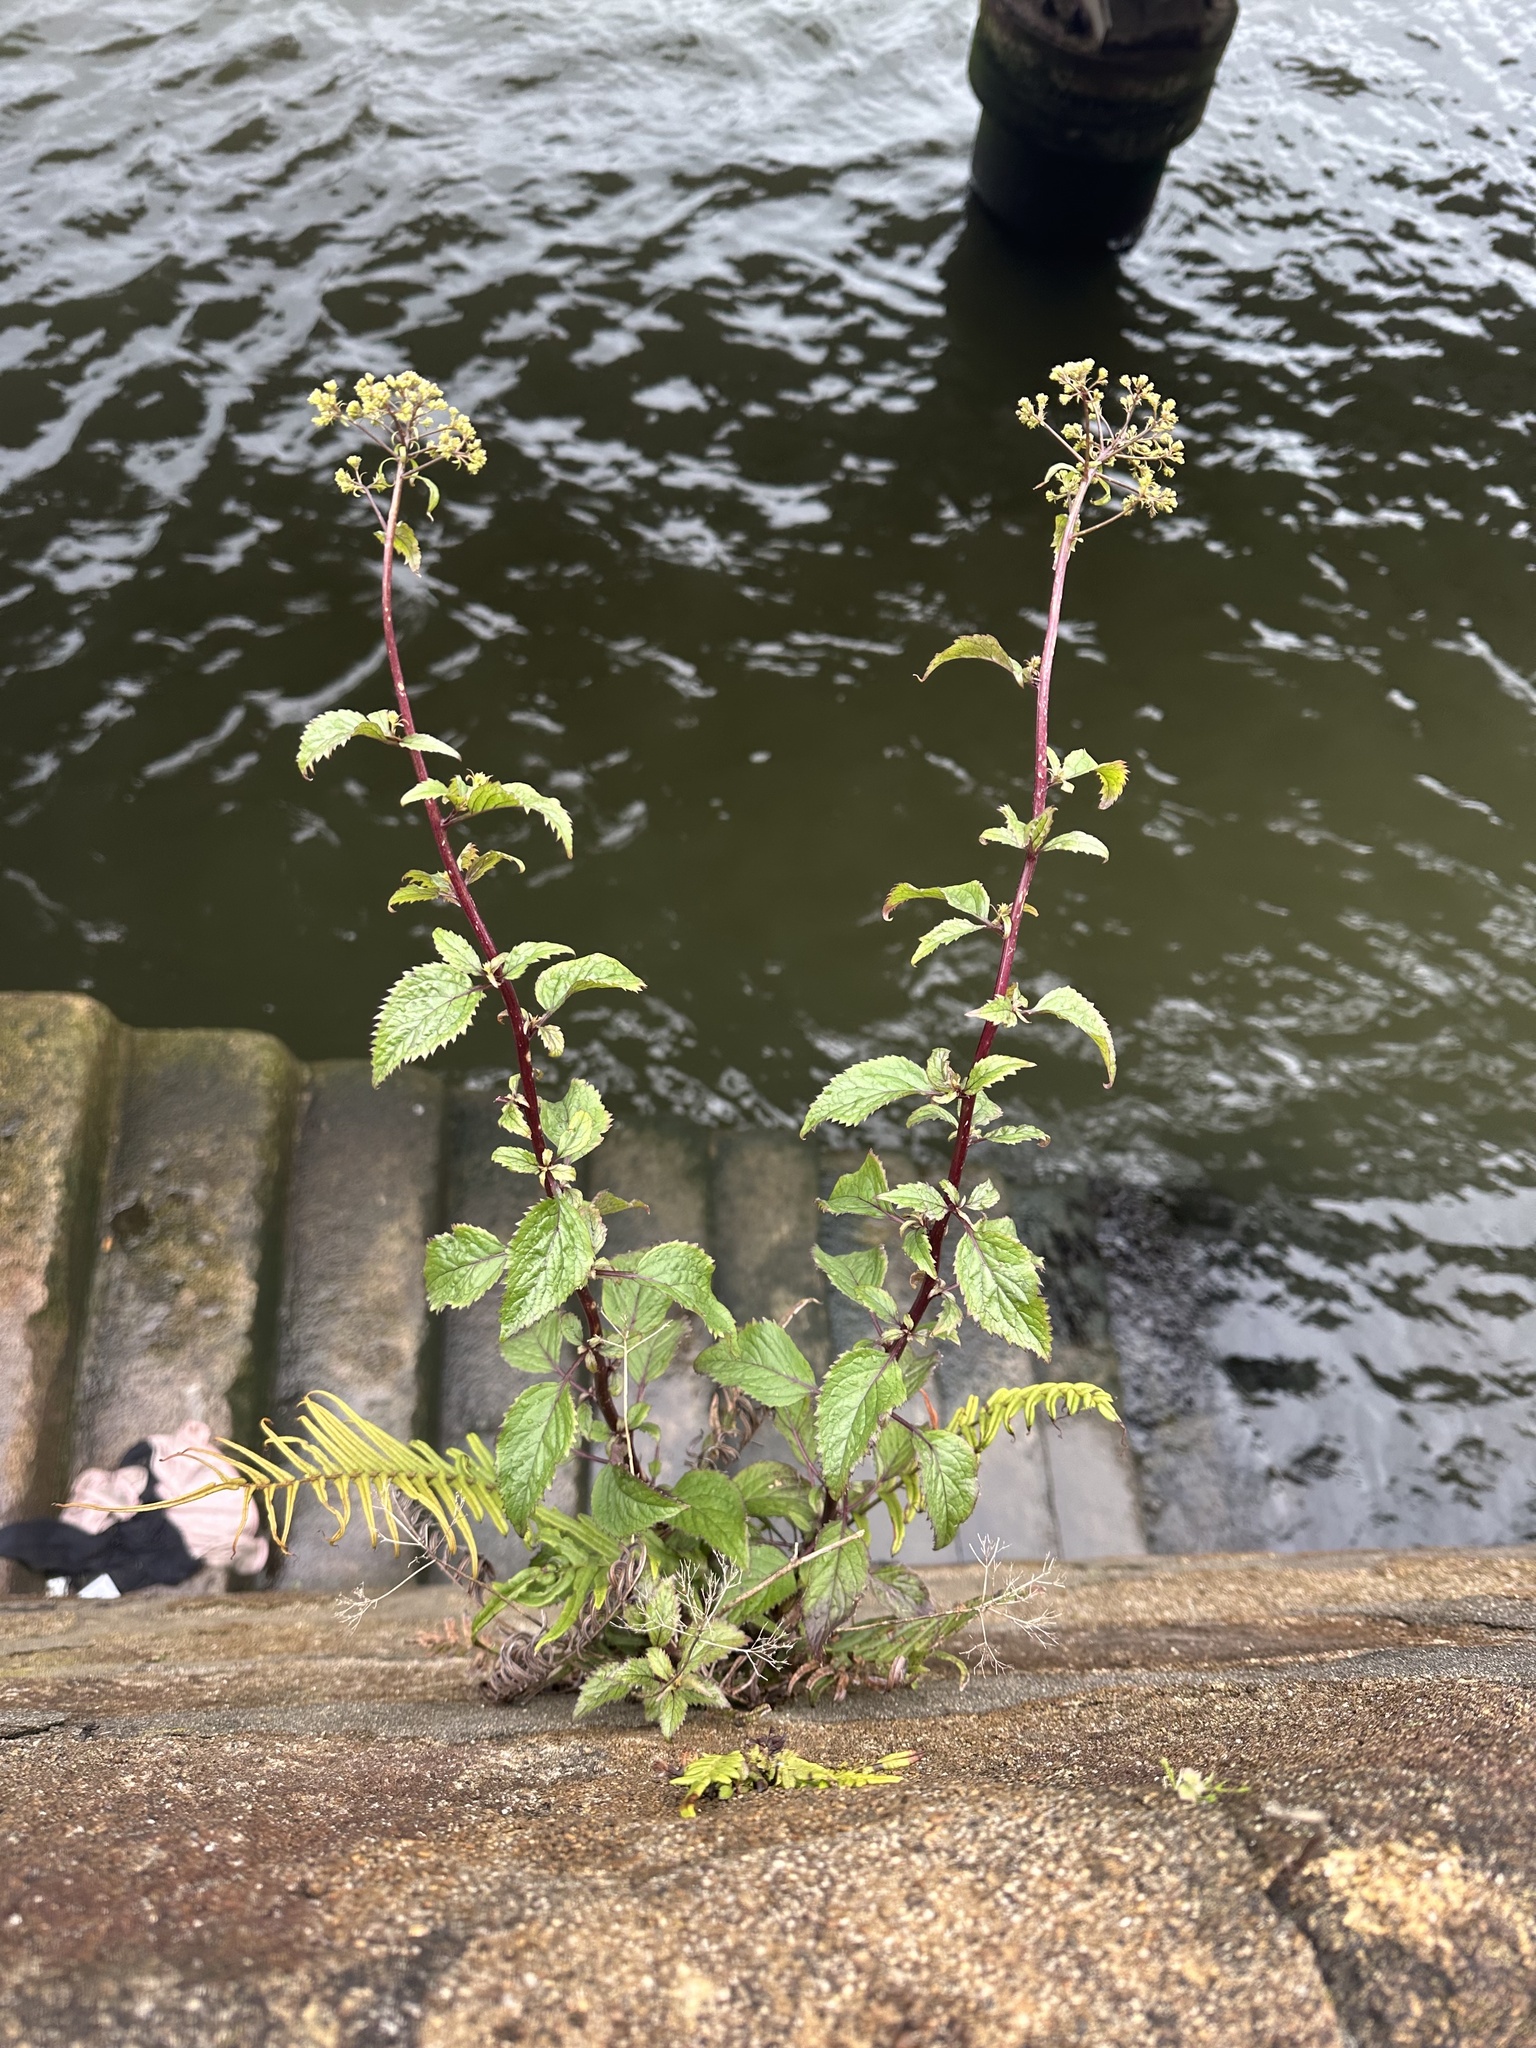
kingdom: Plantae
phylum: Tracheophyta
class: Magnoliopsida
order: Asterales
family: Campanulaceae
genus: Trachelium
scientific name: Trachelium caeruleum
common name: Throatwort
